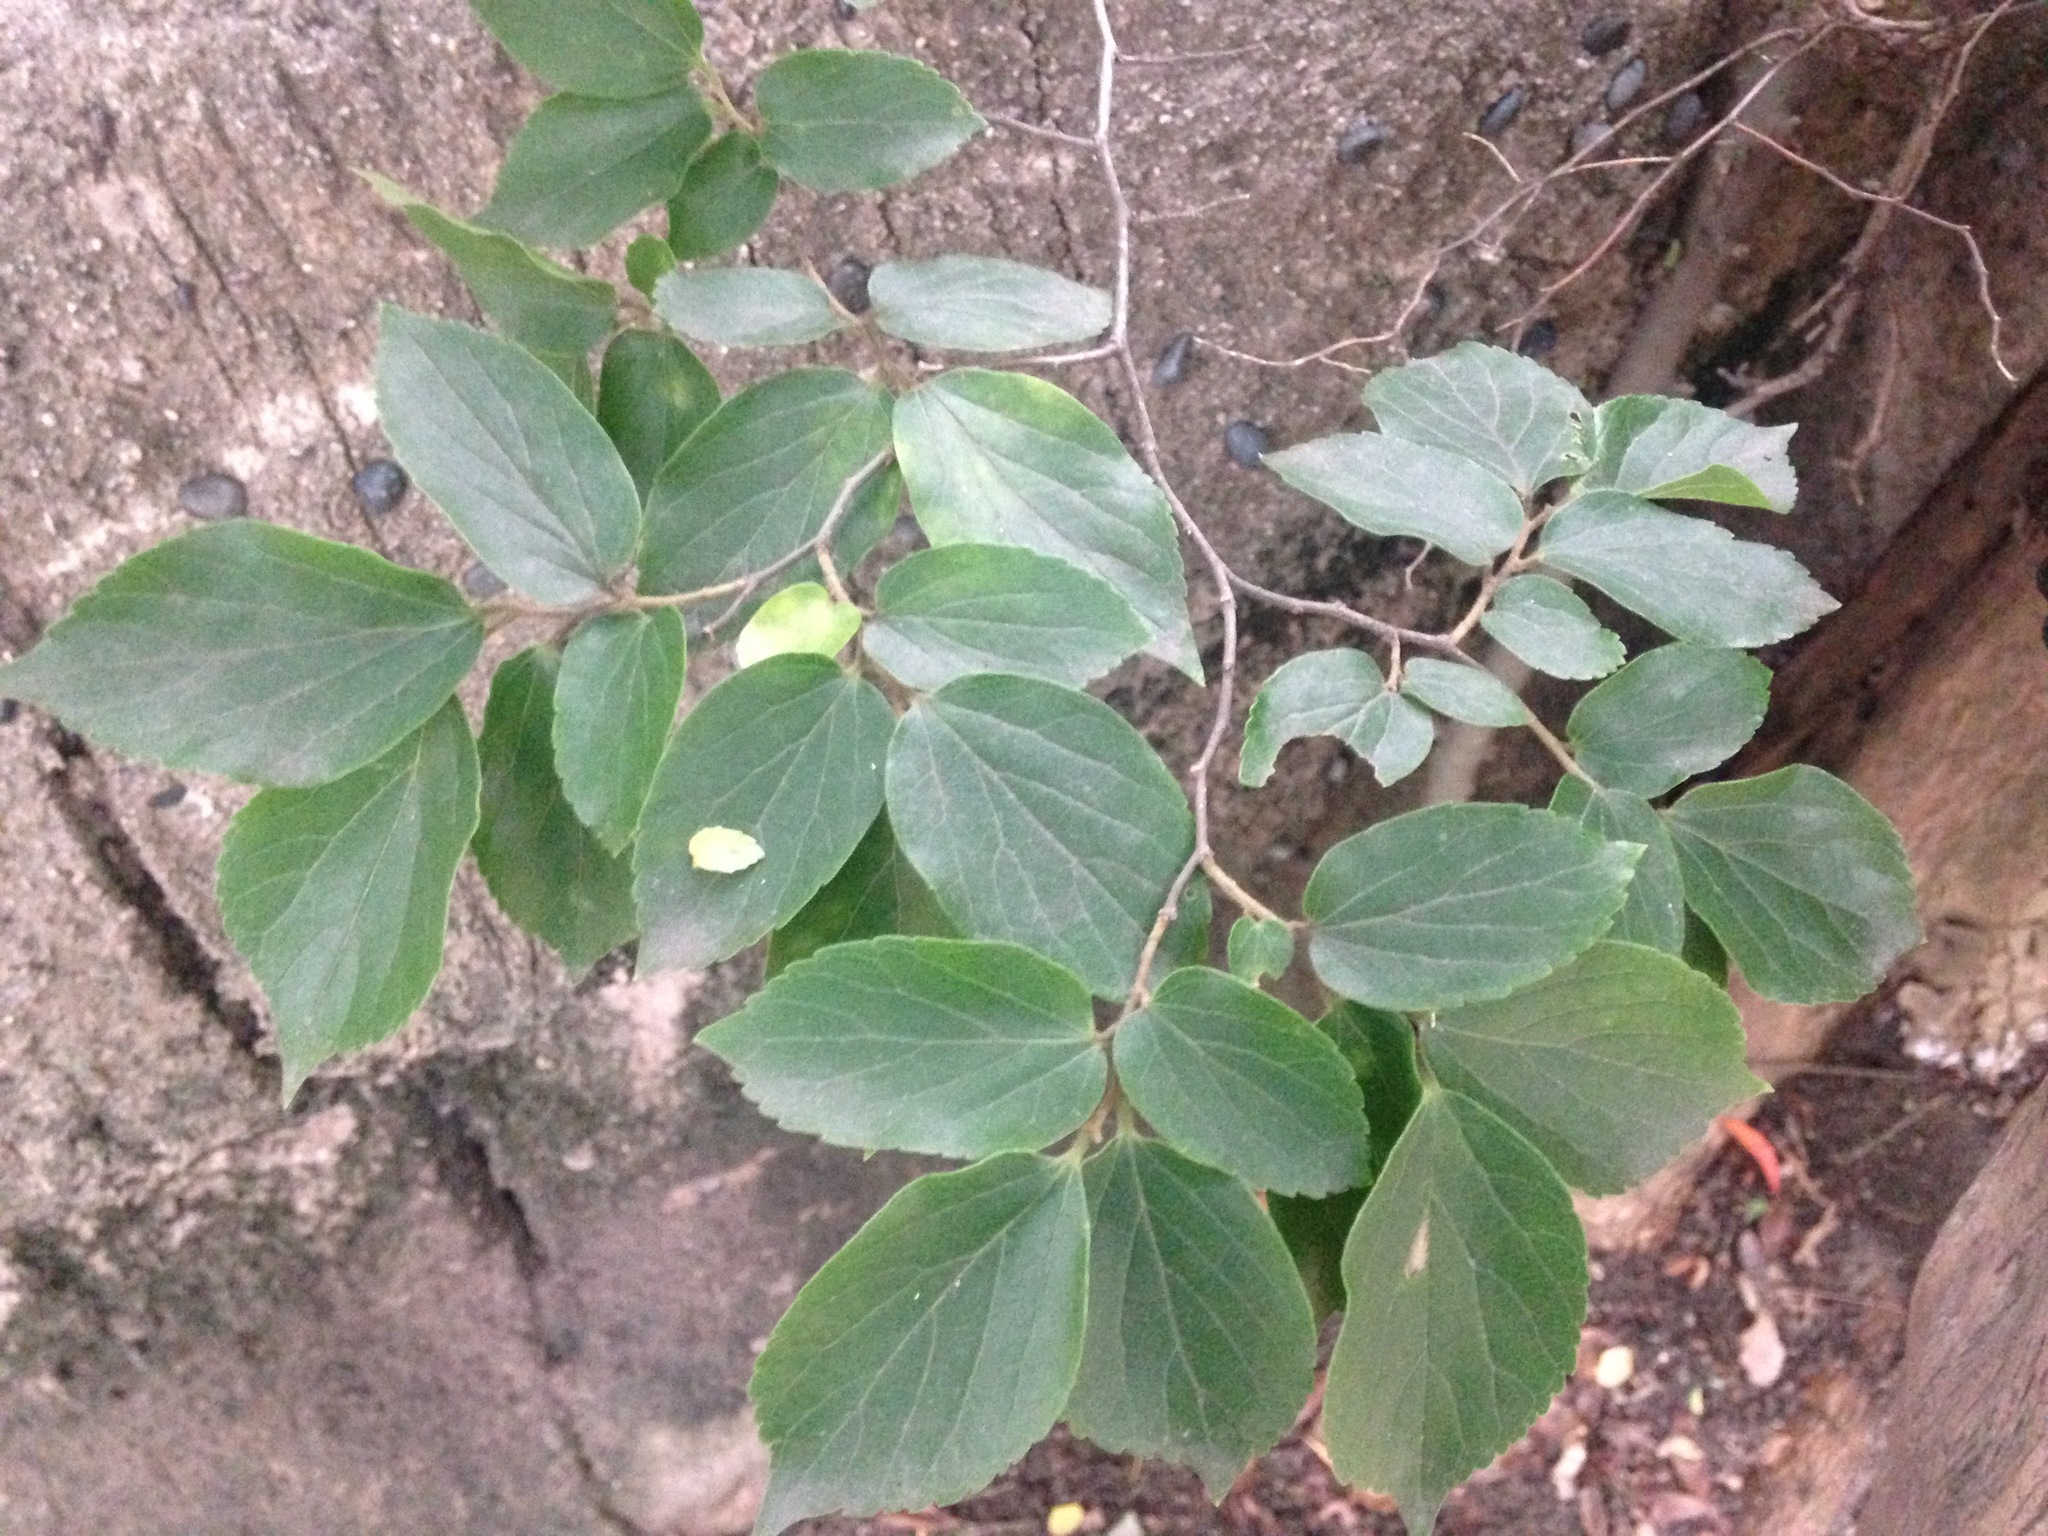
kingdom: Plantae
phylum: Tracheophyta
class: Magnoliopsida
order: Rosales
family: Cannabaceae
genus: Celtis
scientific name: Celtis sinensis
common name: Chinese hackberry
